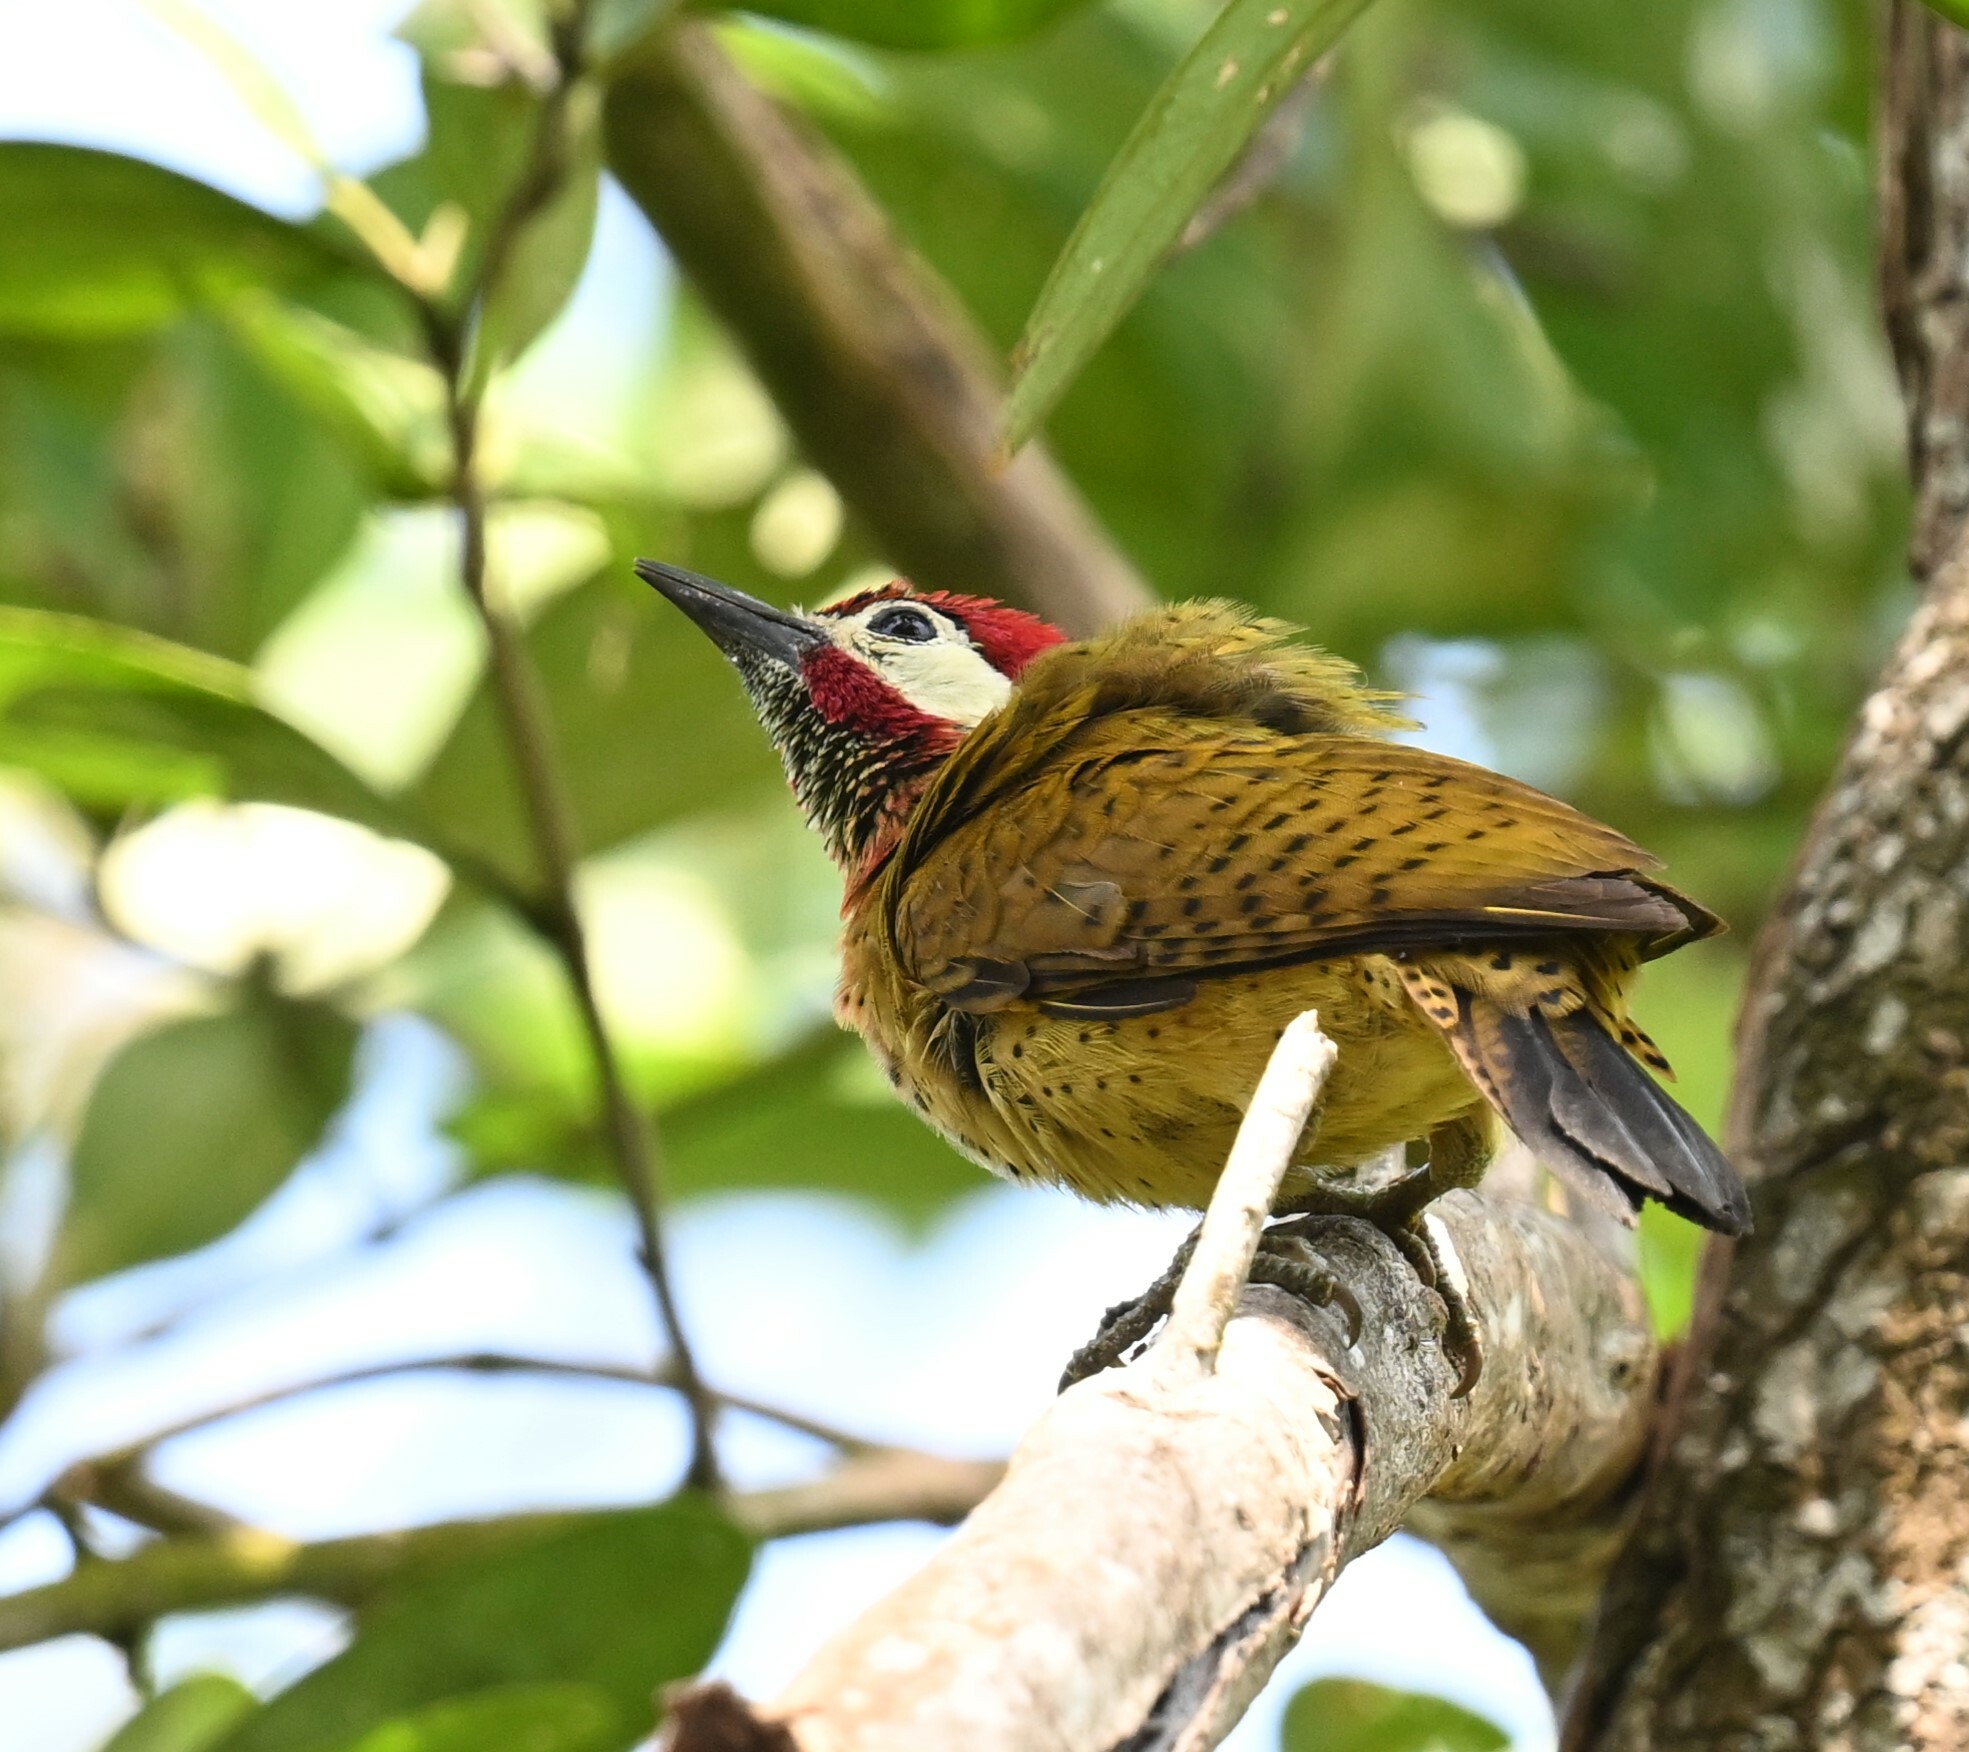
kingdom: Animalia
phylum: Chordata
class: Aves
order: Piciformes
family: Picidae
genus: Colaptes
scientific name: Colaptes punctigula
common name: Spot-breasted woodpecker
